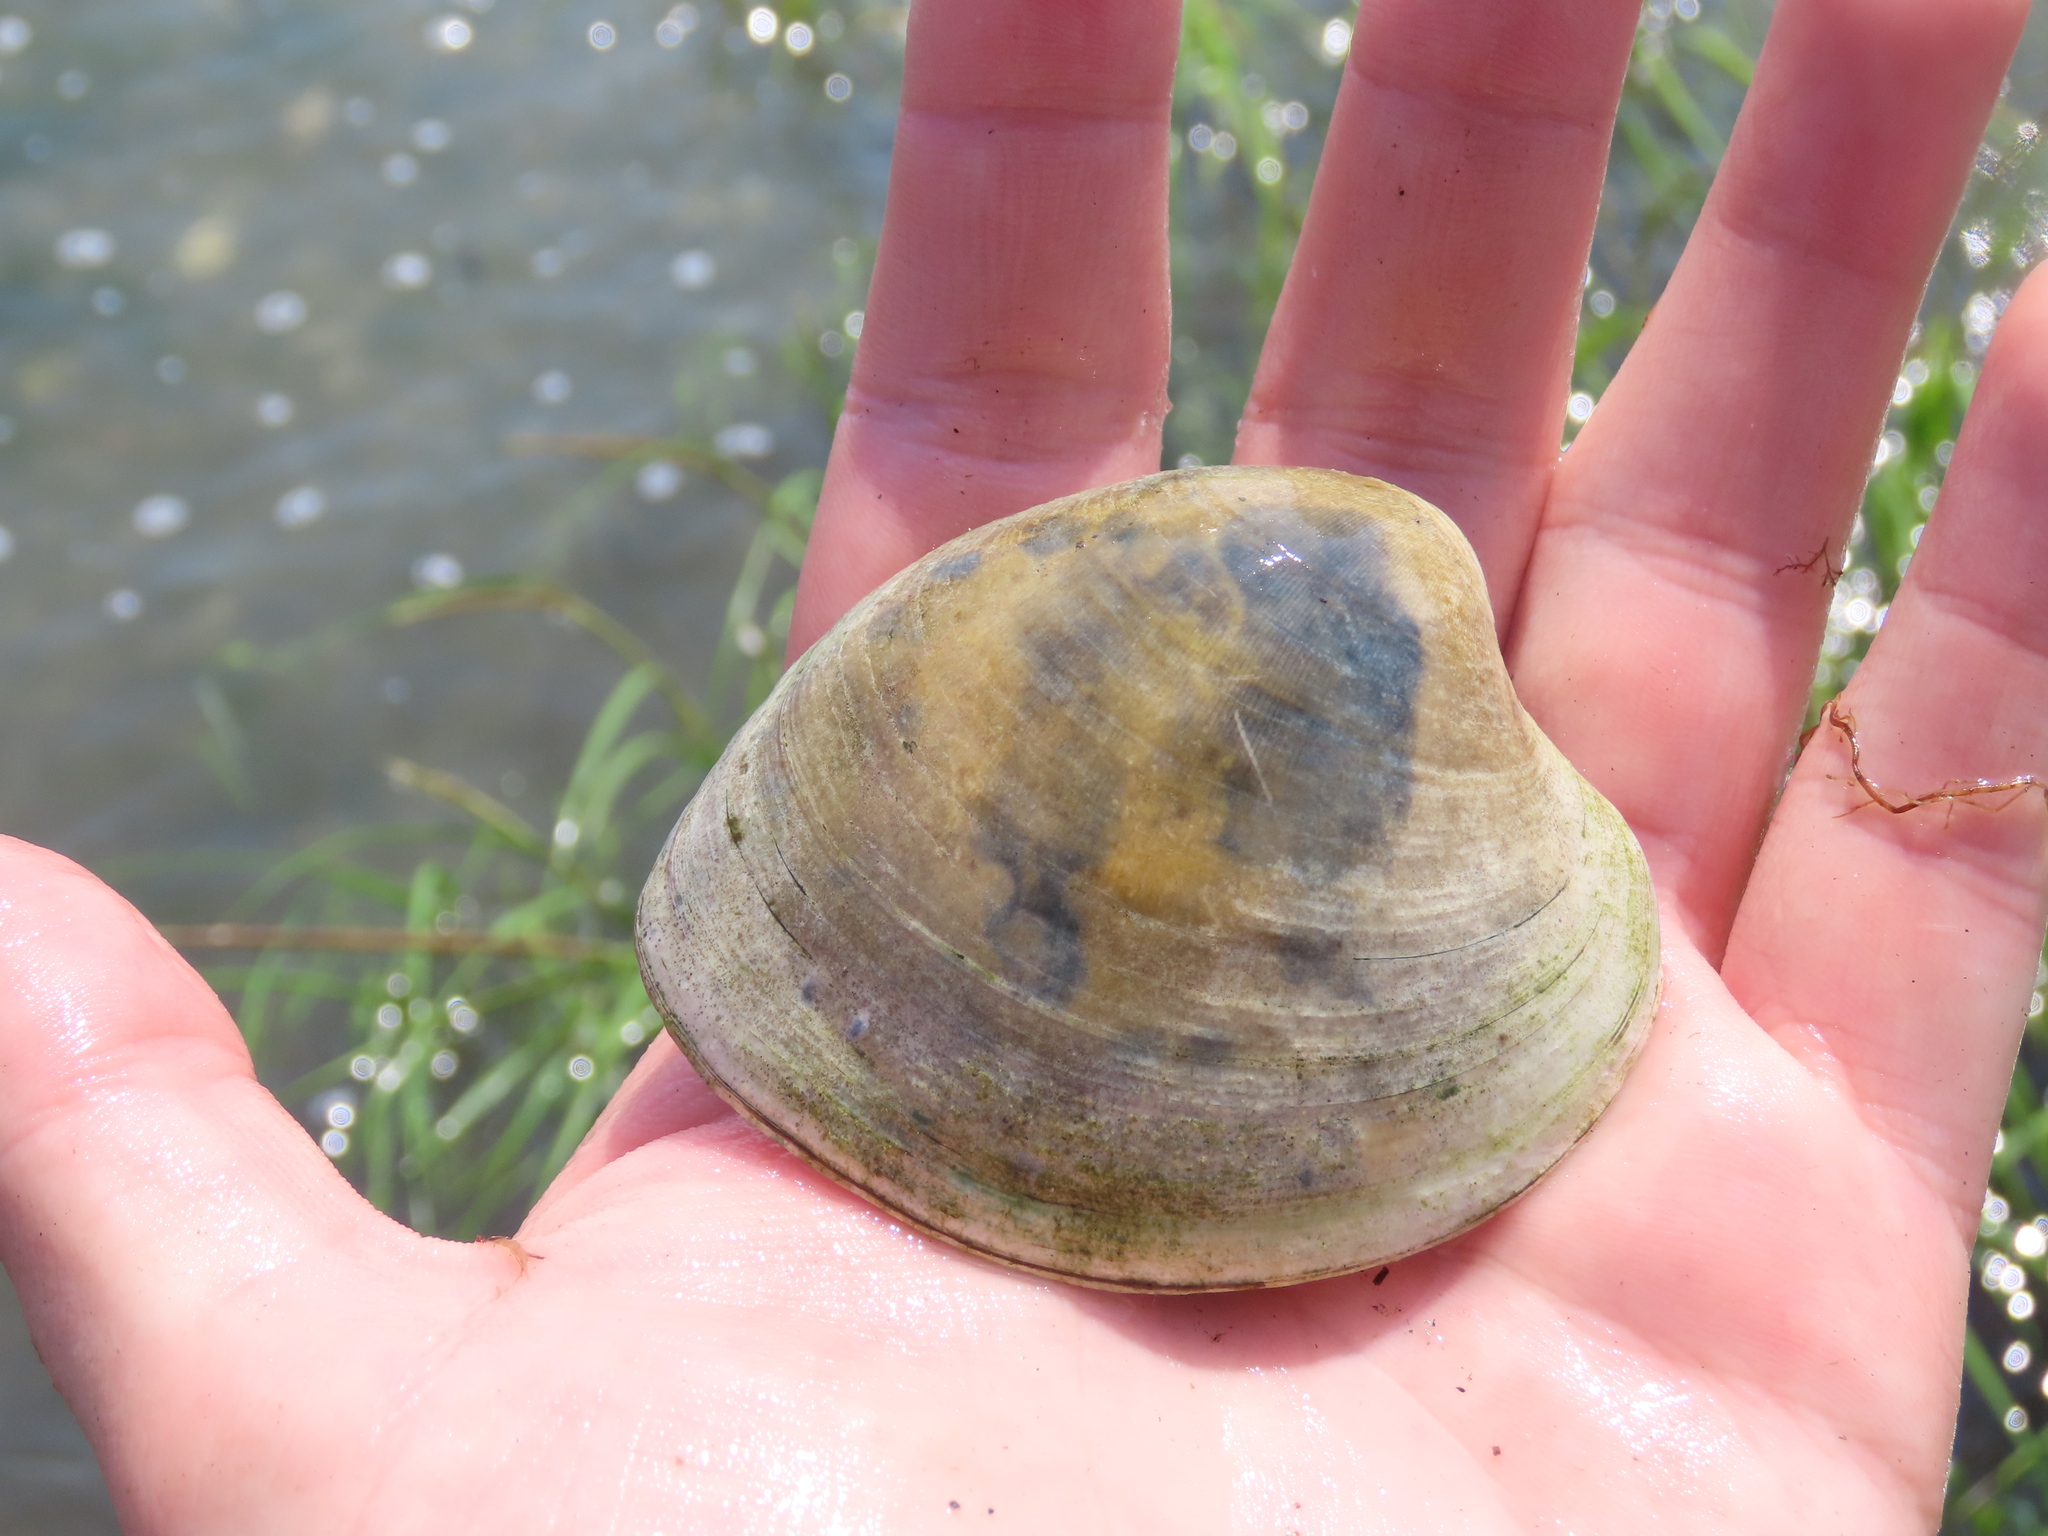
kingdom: Animalia
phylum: Mollusca
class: Bivalvia
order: Venerida
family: Veneridae
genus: Mercenaria
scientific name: Mercenaria mercenaria
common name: American hard-shelled clam
